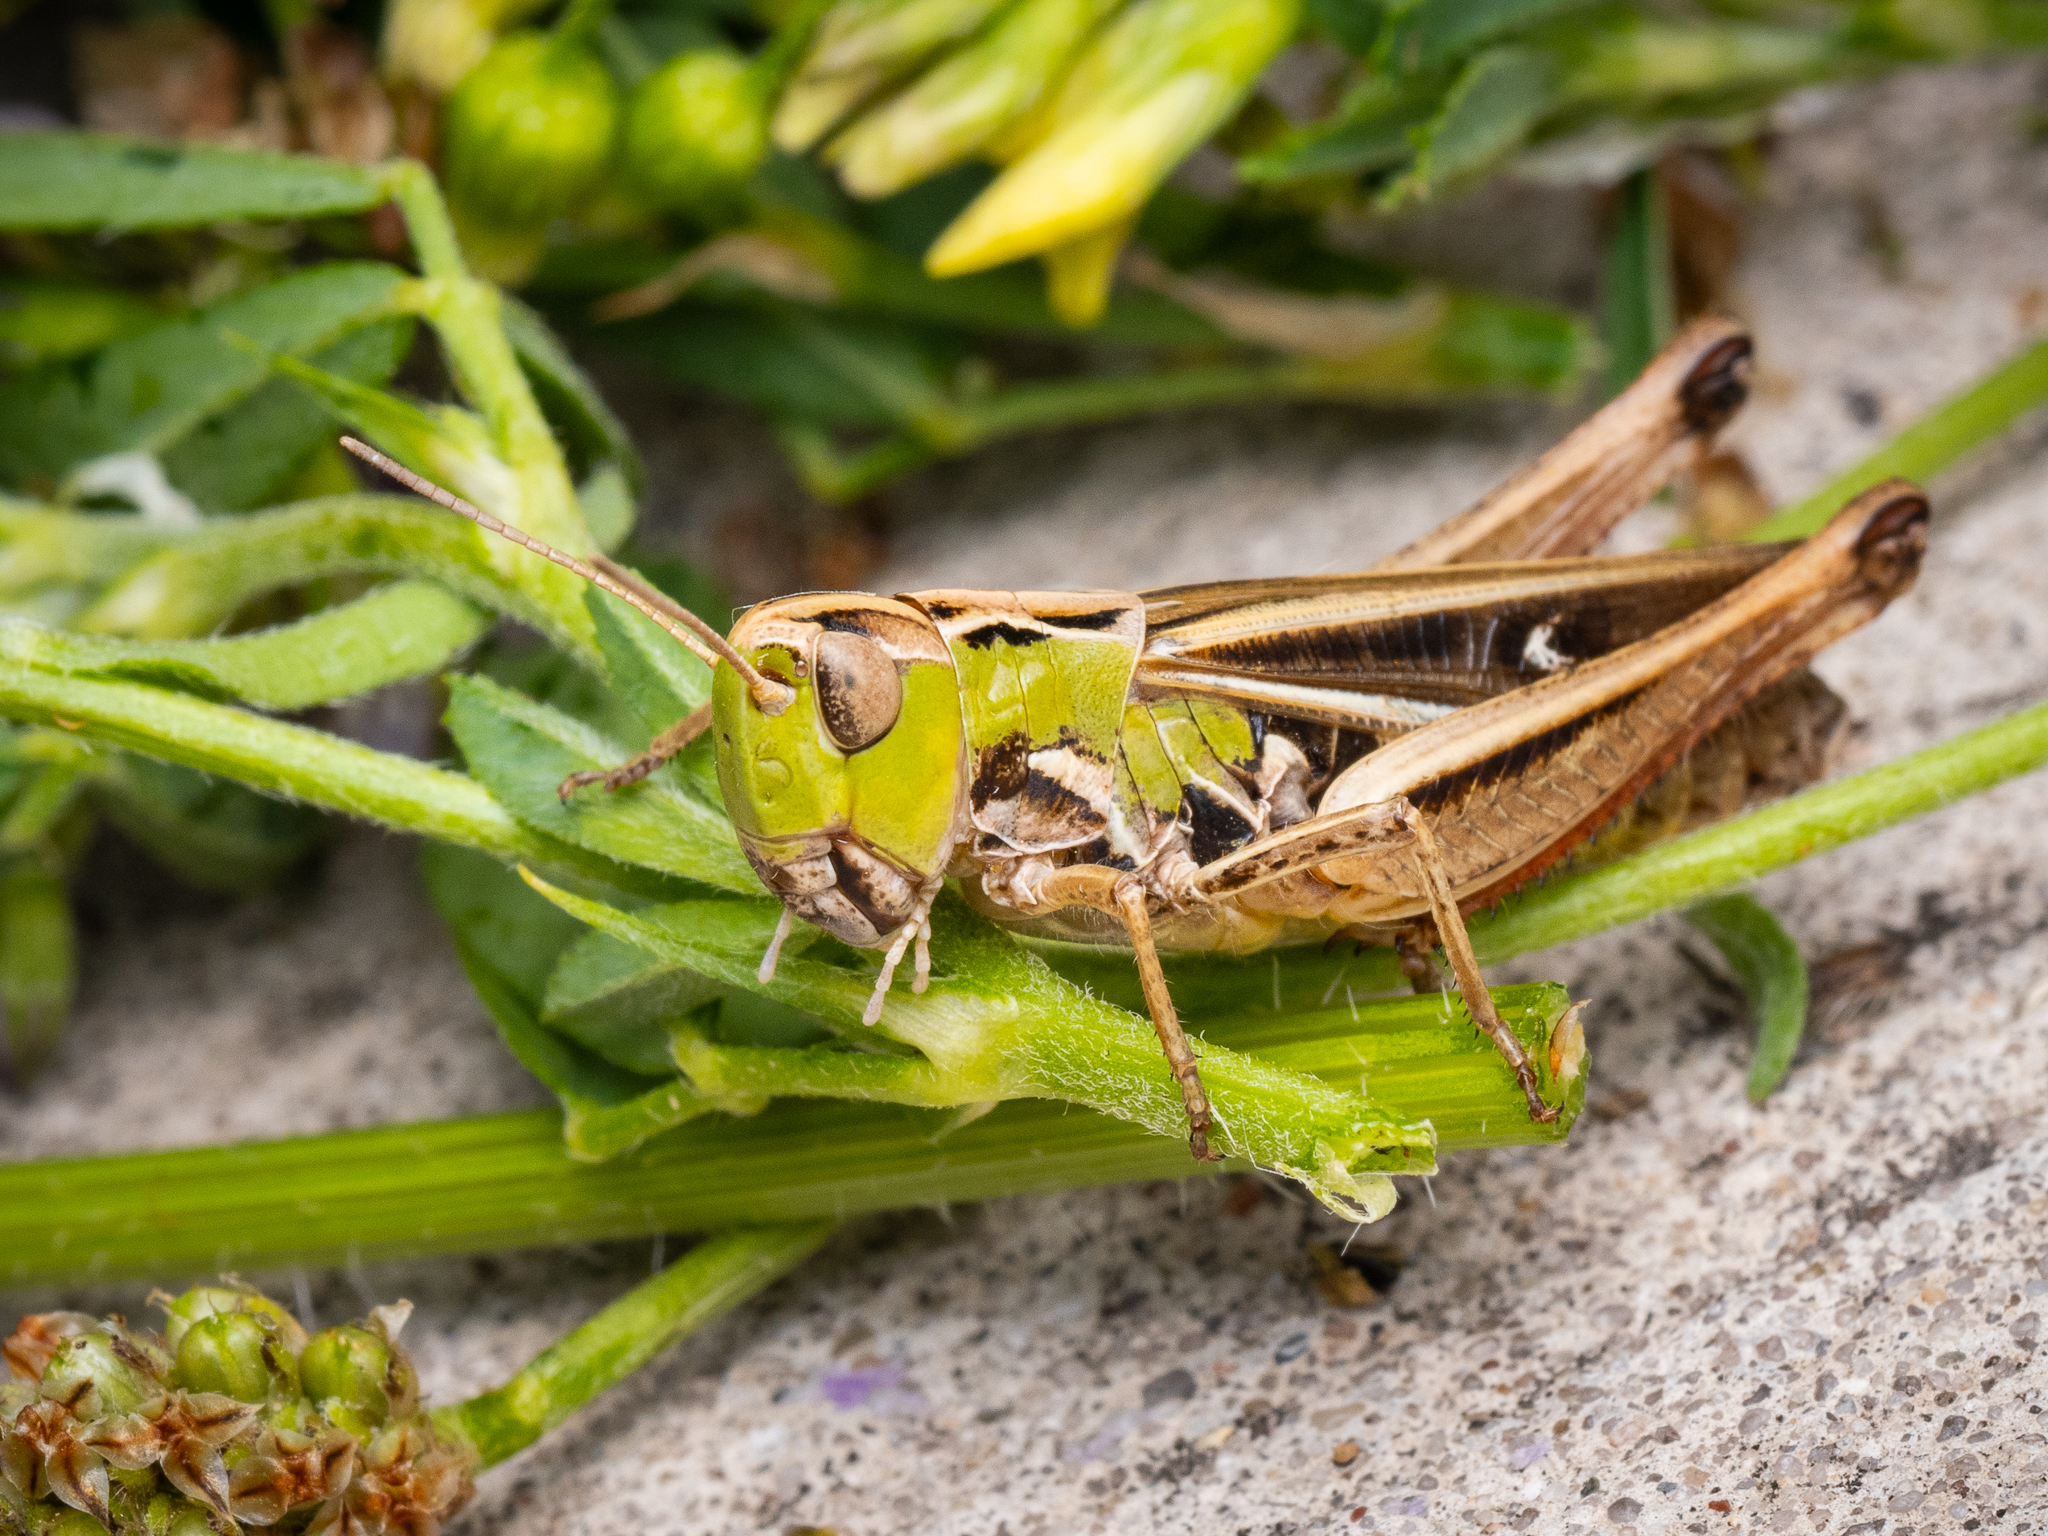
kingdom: Animalia
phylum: Arthropoda
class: Insecta
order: Orthoptera
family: Acrididae
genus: Stenobothrus
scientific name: Stenobothrus lineatus
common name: Stripe-winged grasshopper
